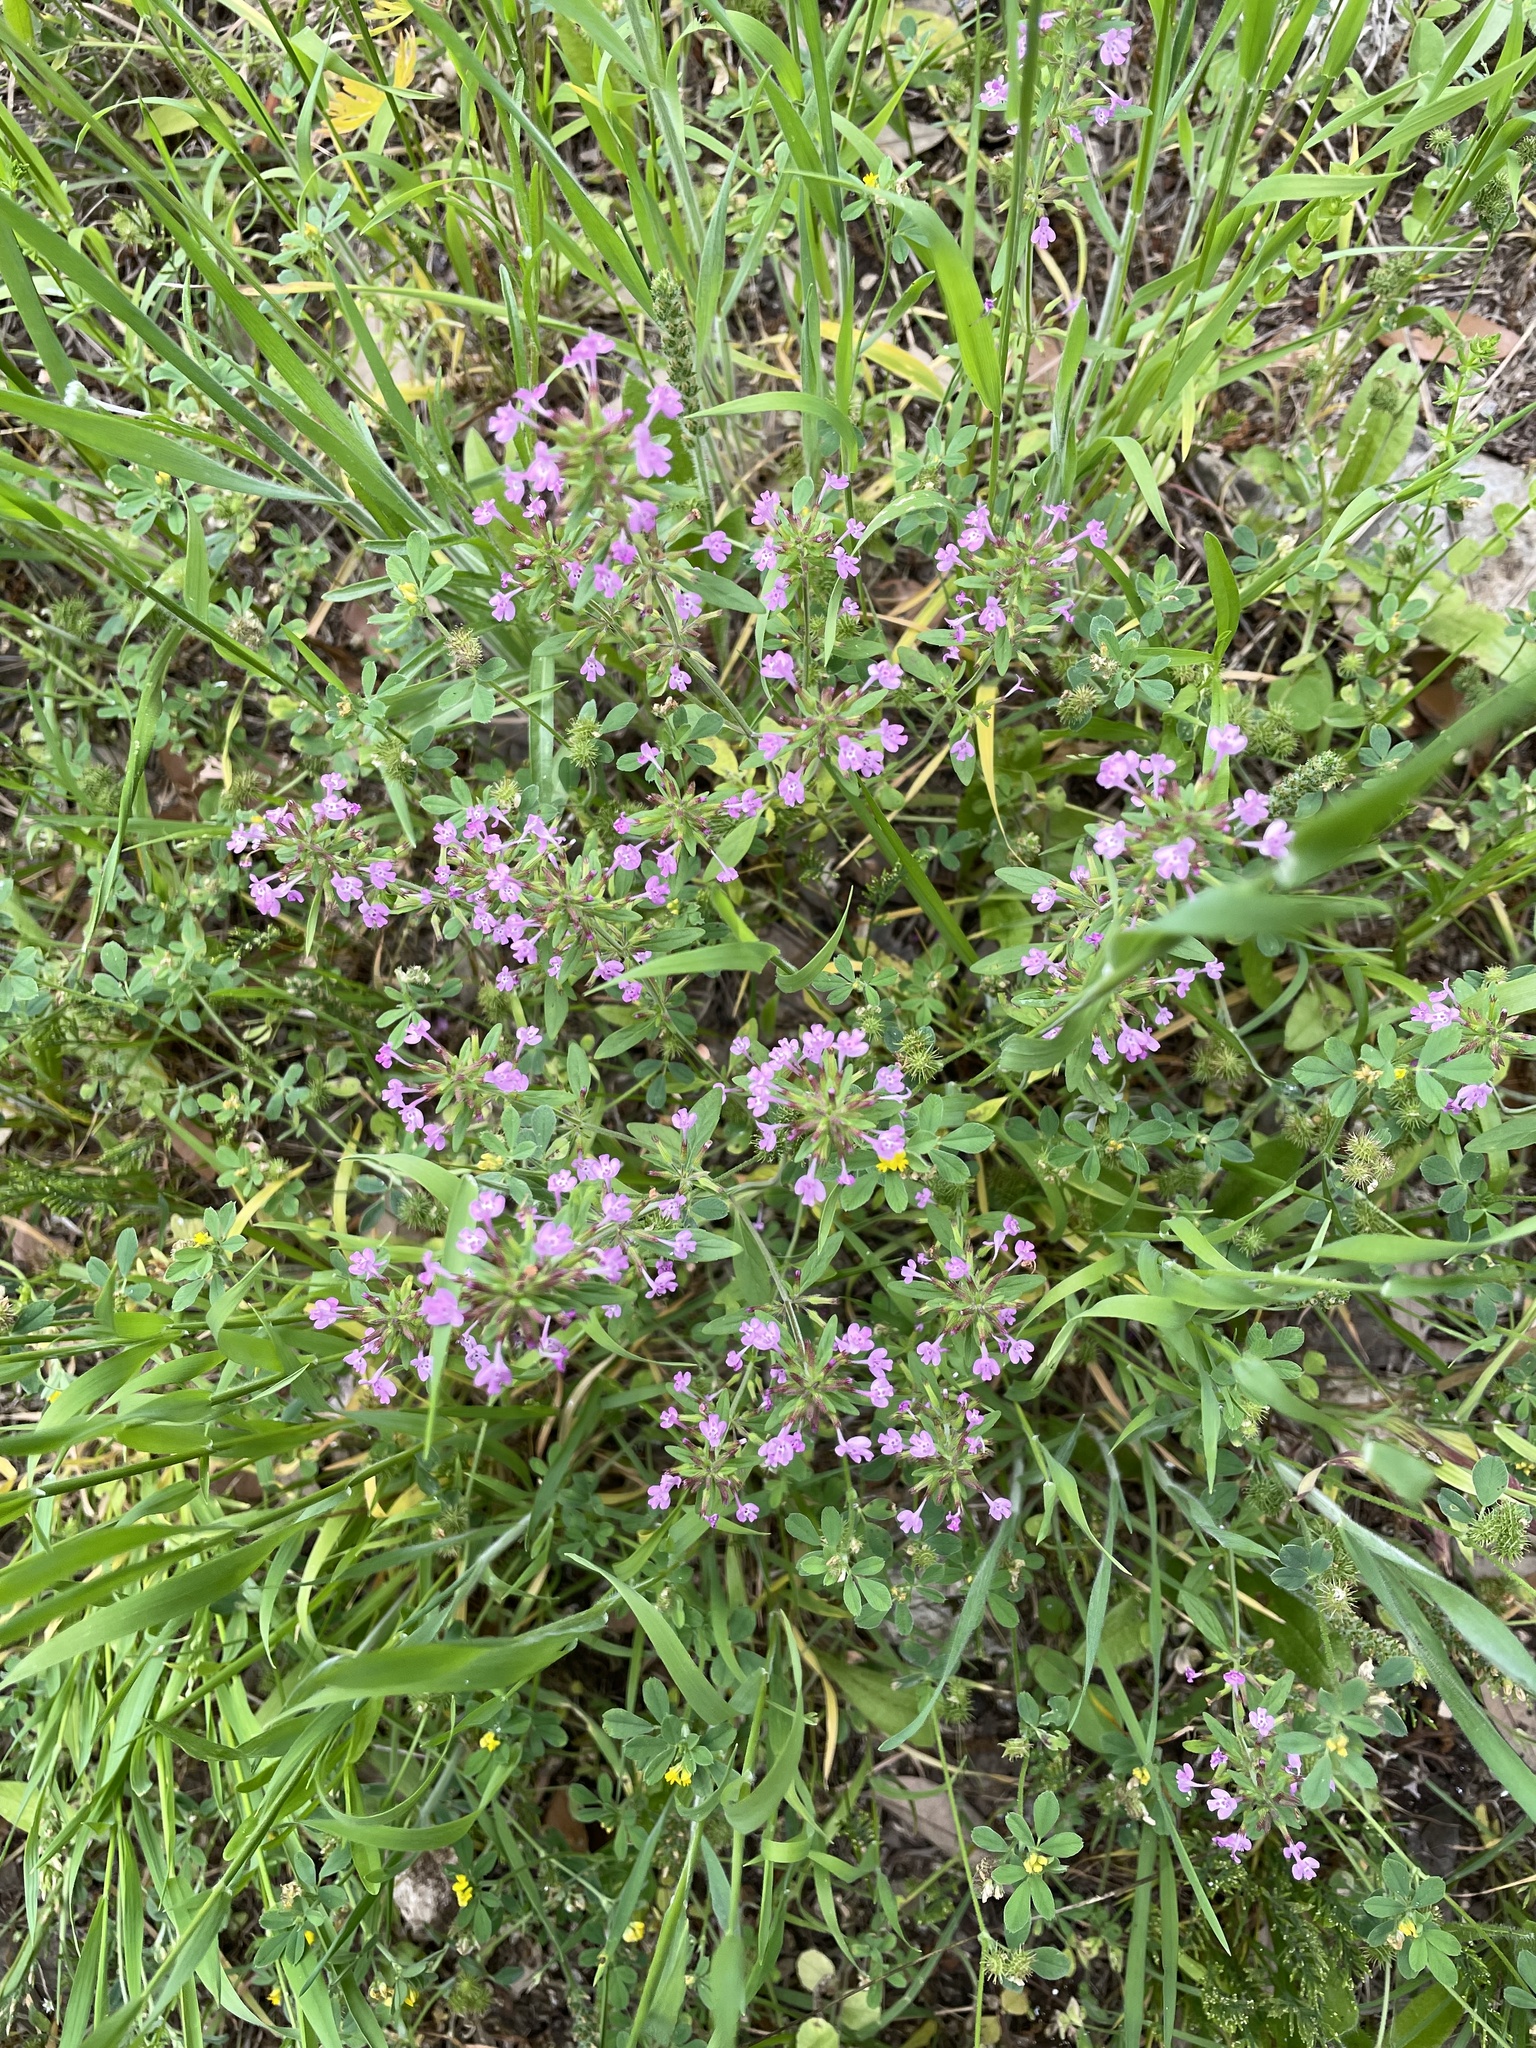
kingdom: Plantae
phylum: Tracheophyta
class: Magnoliopsida
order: Lamiales
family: Lamiaceae
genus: Hedeoma
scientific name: Hedeoma acinoides
